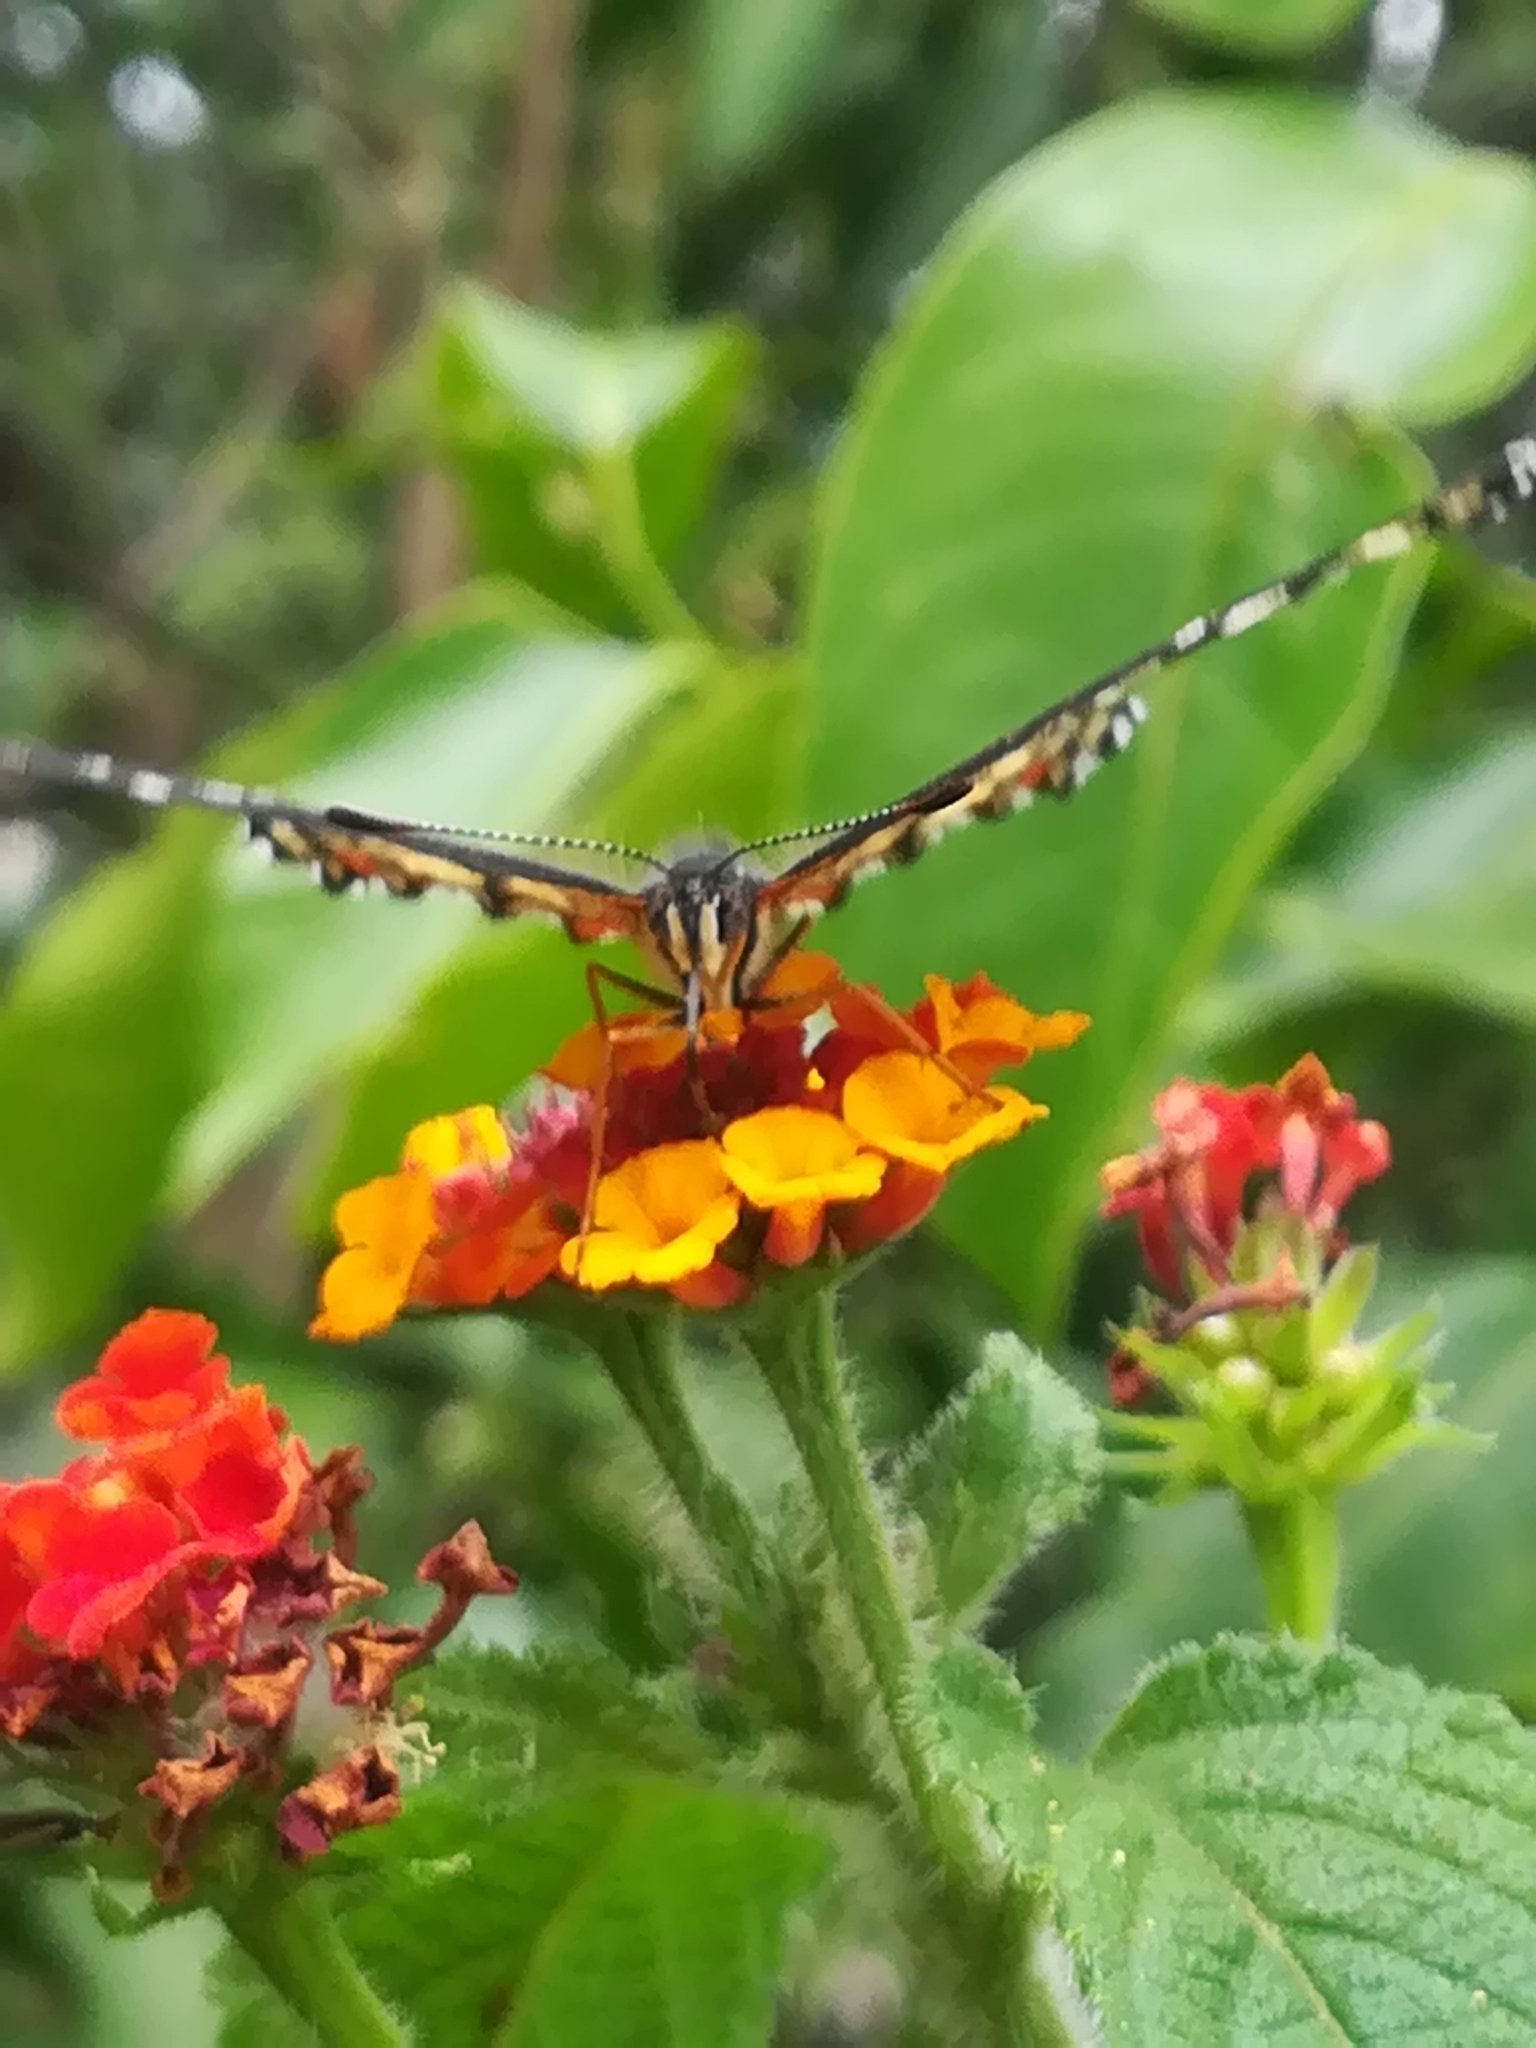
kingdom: Animalia
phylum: Arthropoda
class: Insecta
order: Lepidoptera
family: Nymphalidae
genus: Chlosyne
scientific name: Chlosyne marina
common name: Red-spotted patch
